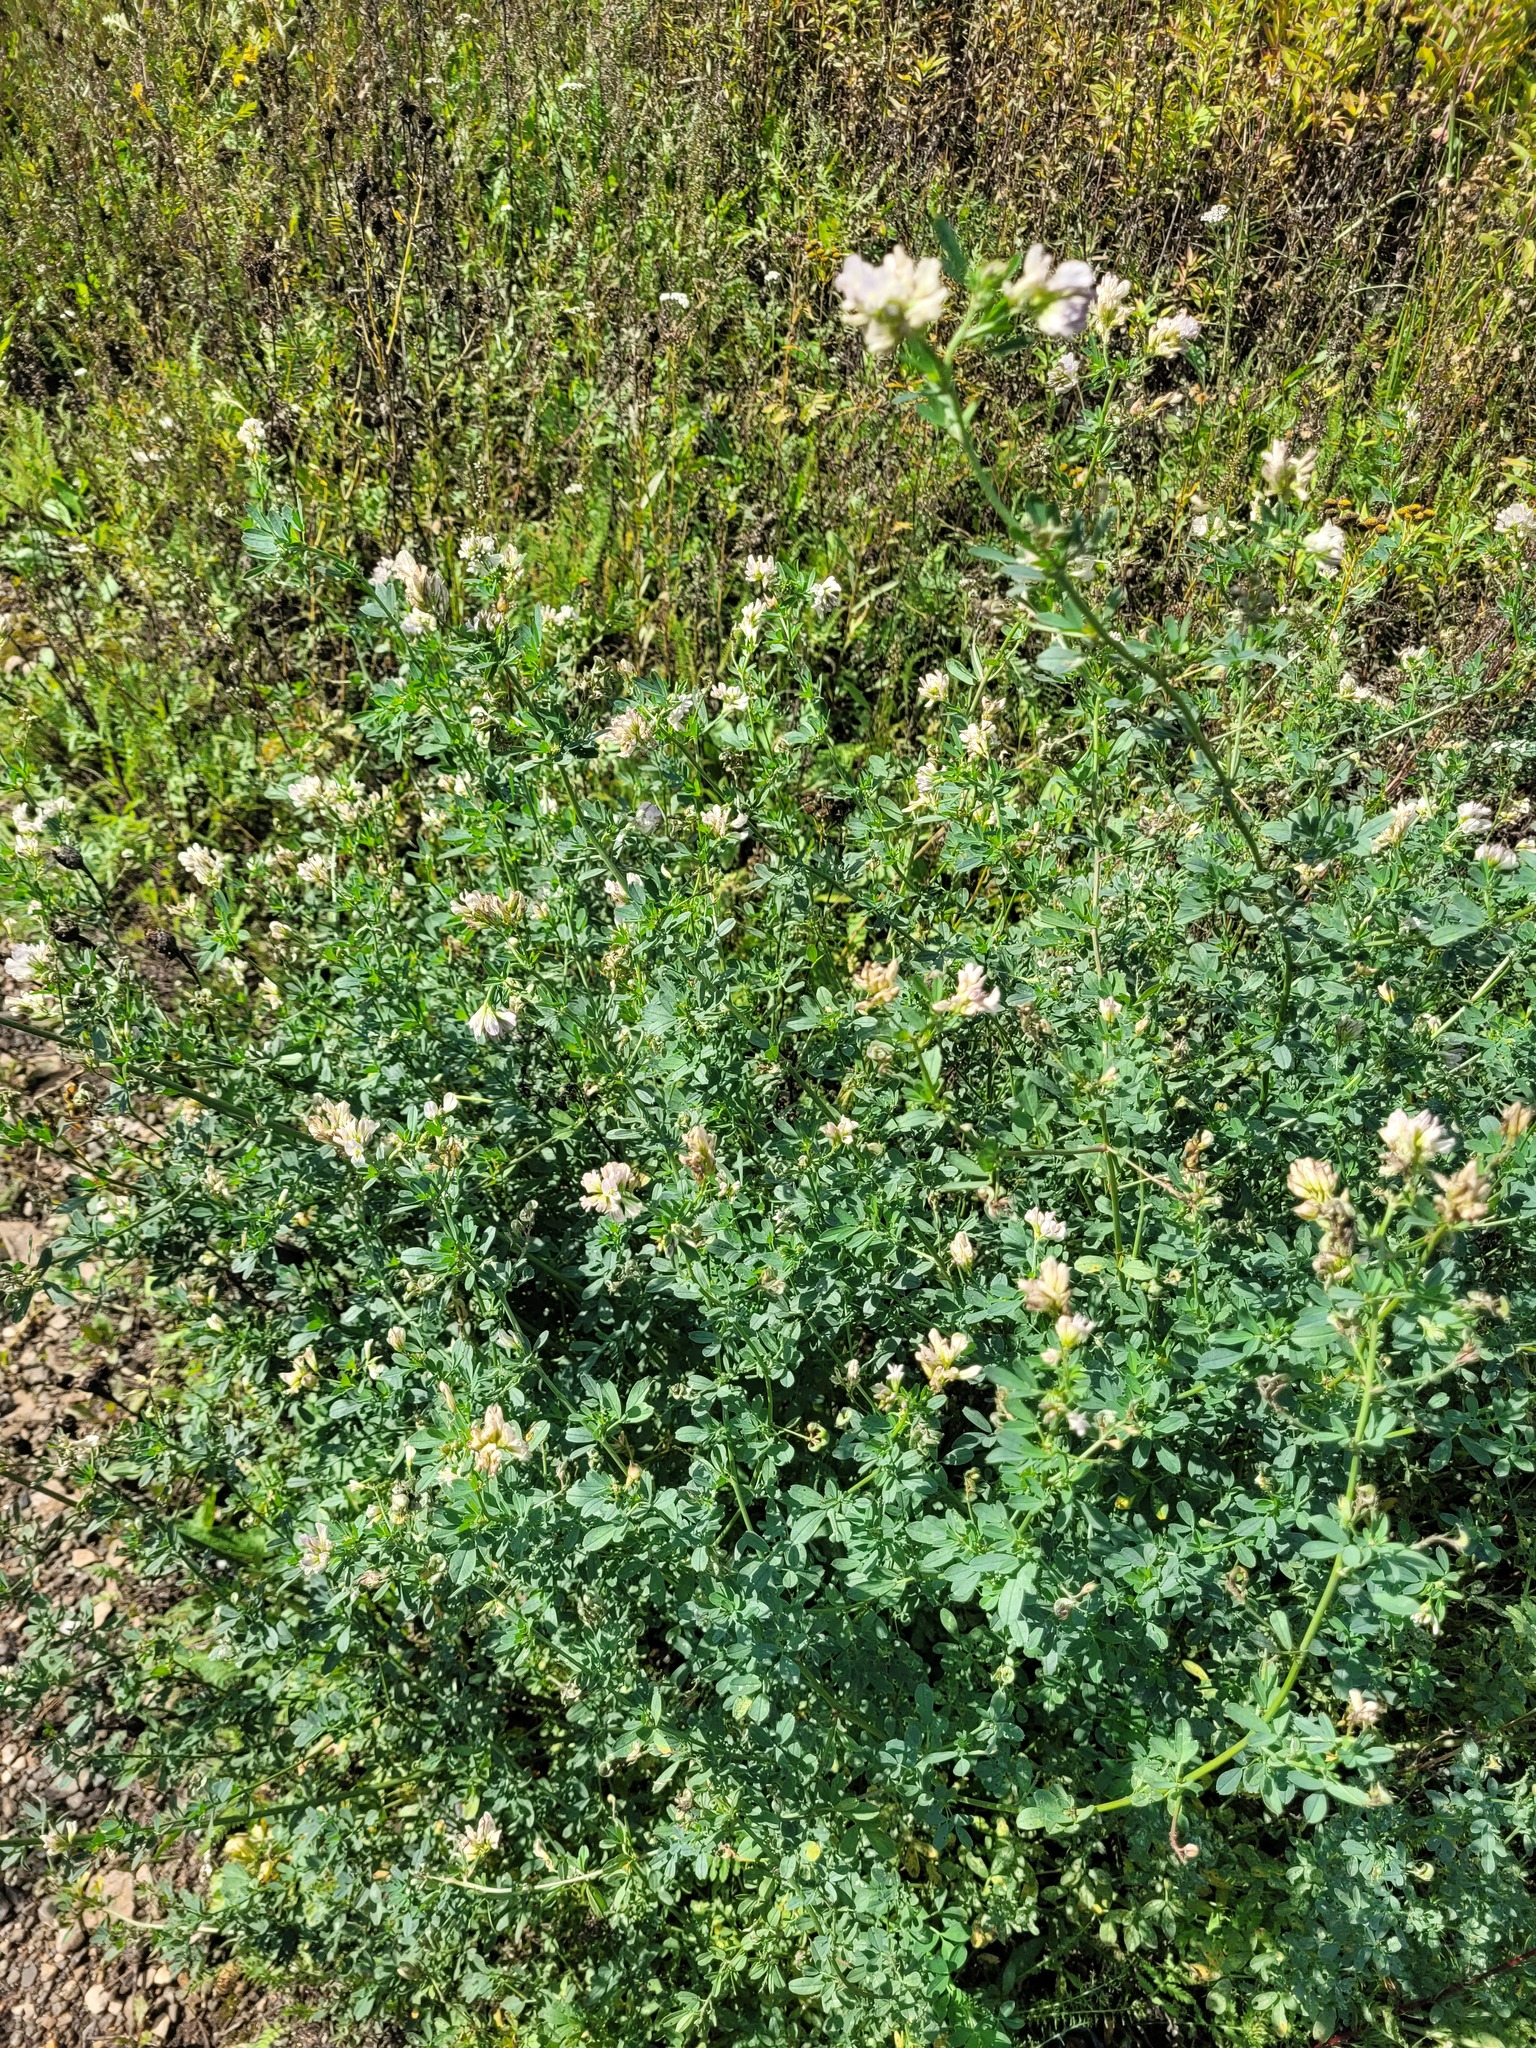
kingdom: Plantae
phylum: Tracheophyta
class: Magnoliopsida
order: Fabales
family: Fabaceae
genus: Medicago
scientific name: Medicago varia
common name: Sand lucerne
